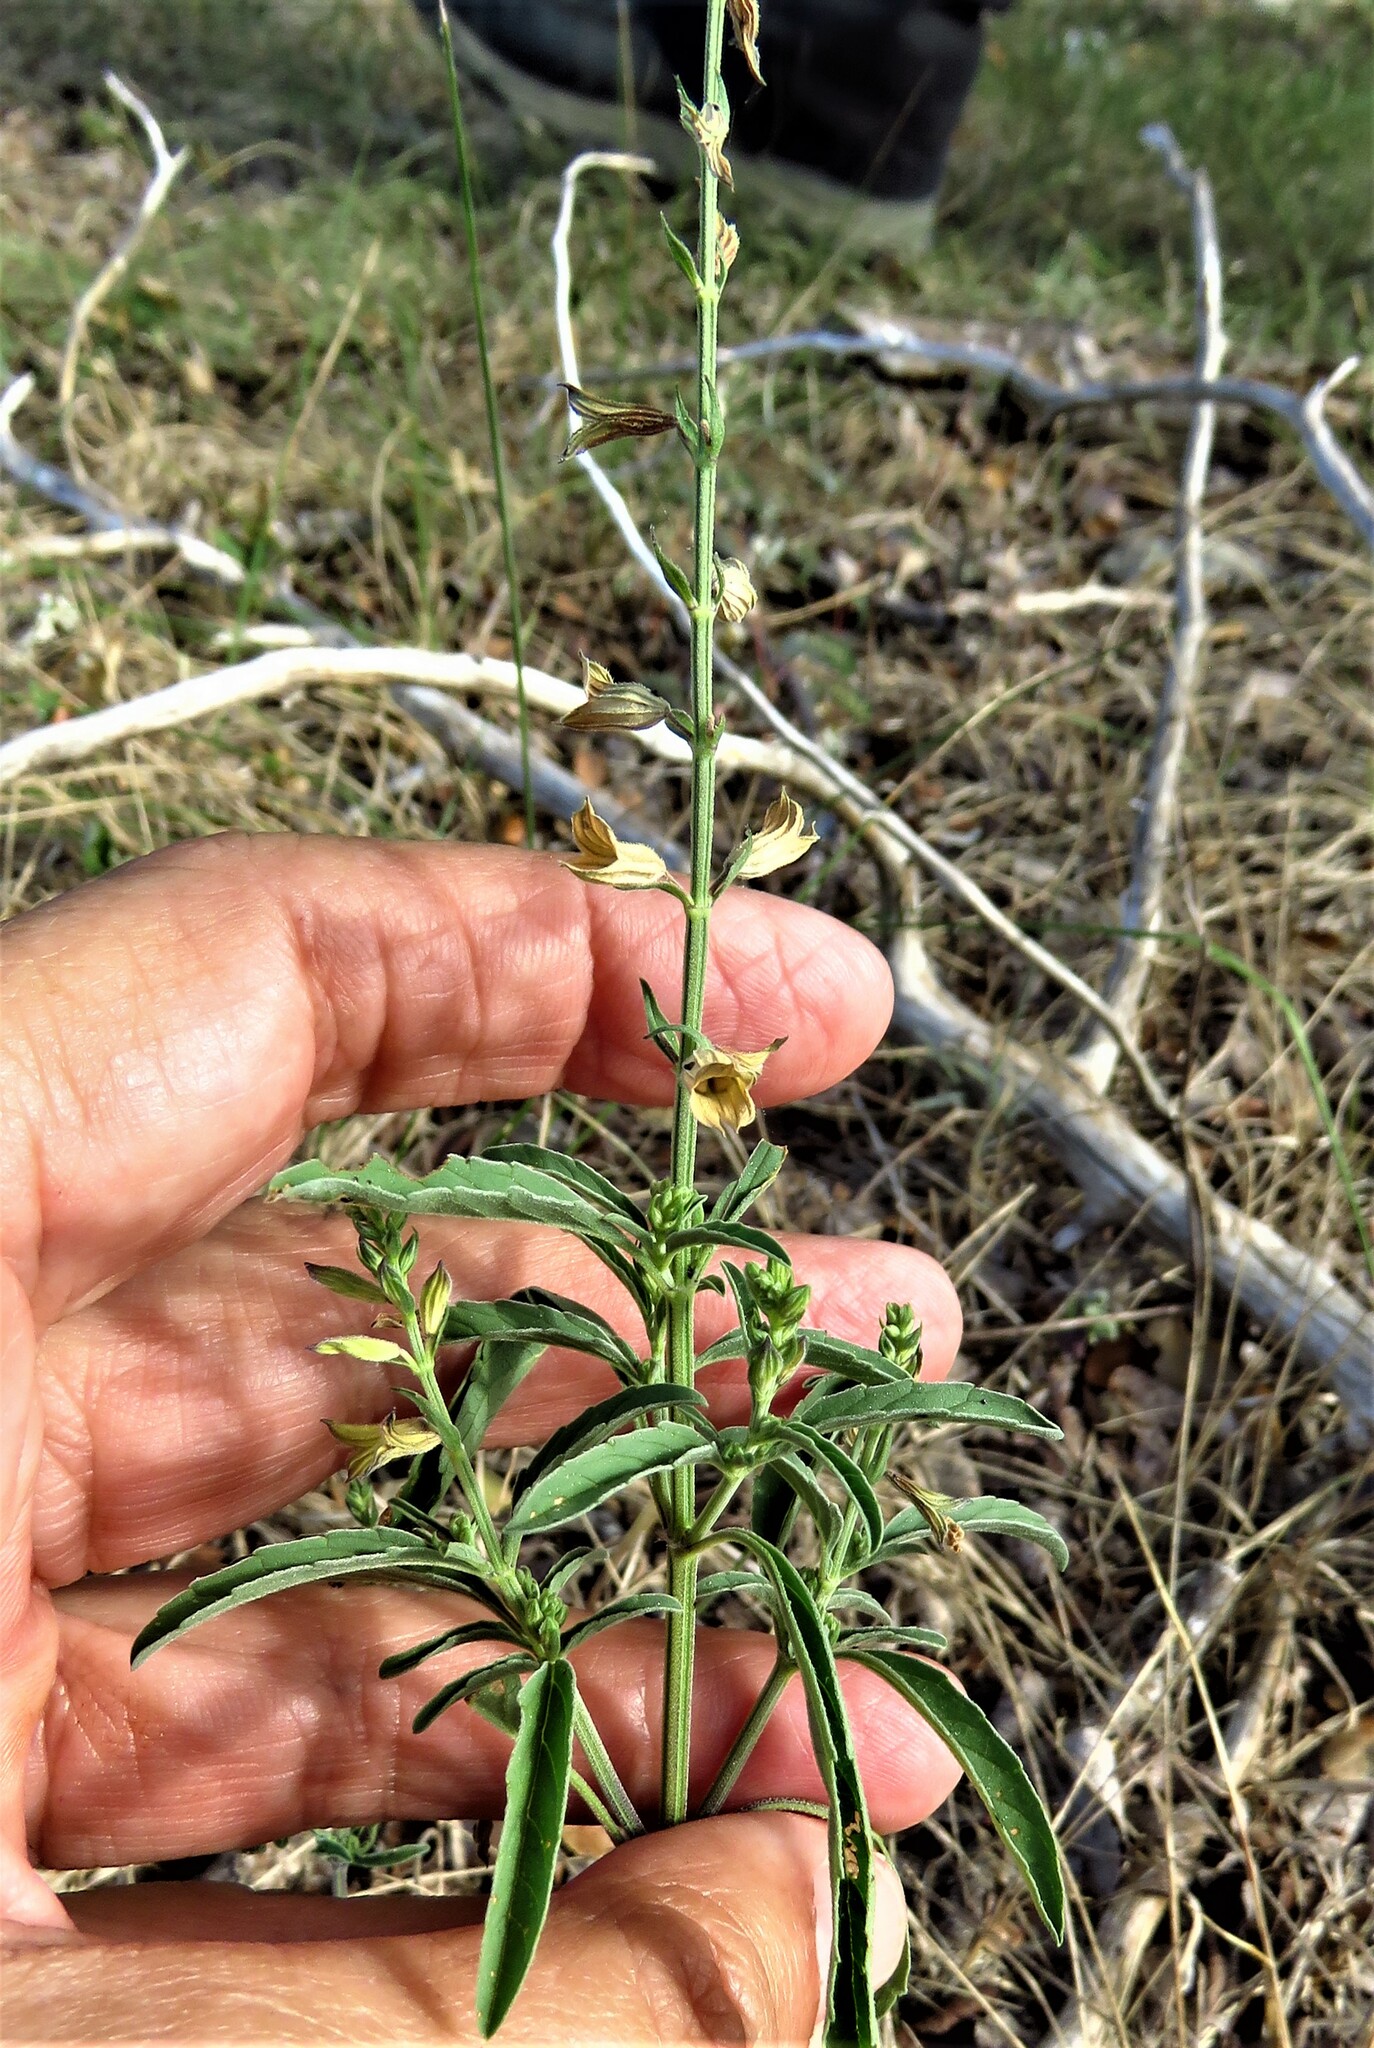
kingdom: Plantae
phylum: Tracheophyta
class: Magnoliopsida
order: Lamiales
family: Lamiaceae
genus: Salvia
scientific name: Salvia reflexa
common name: Mintweed
